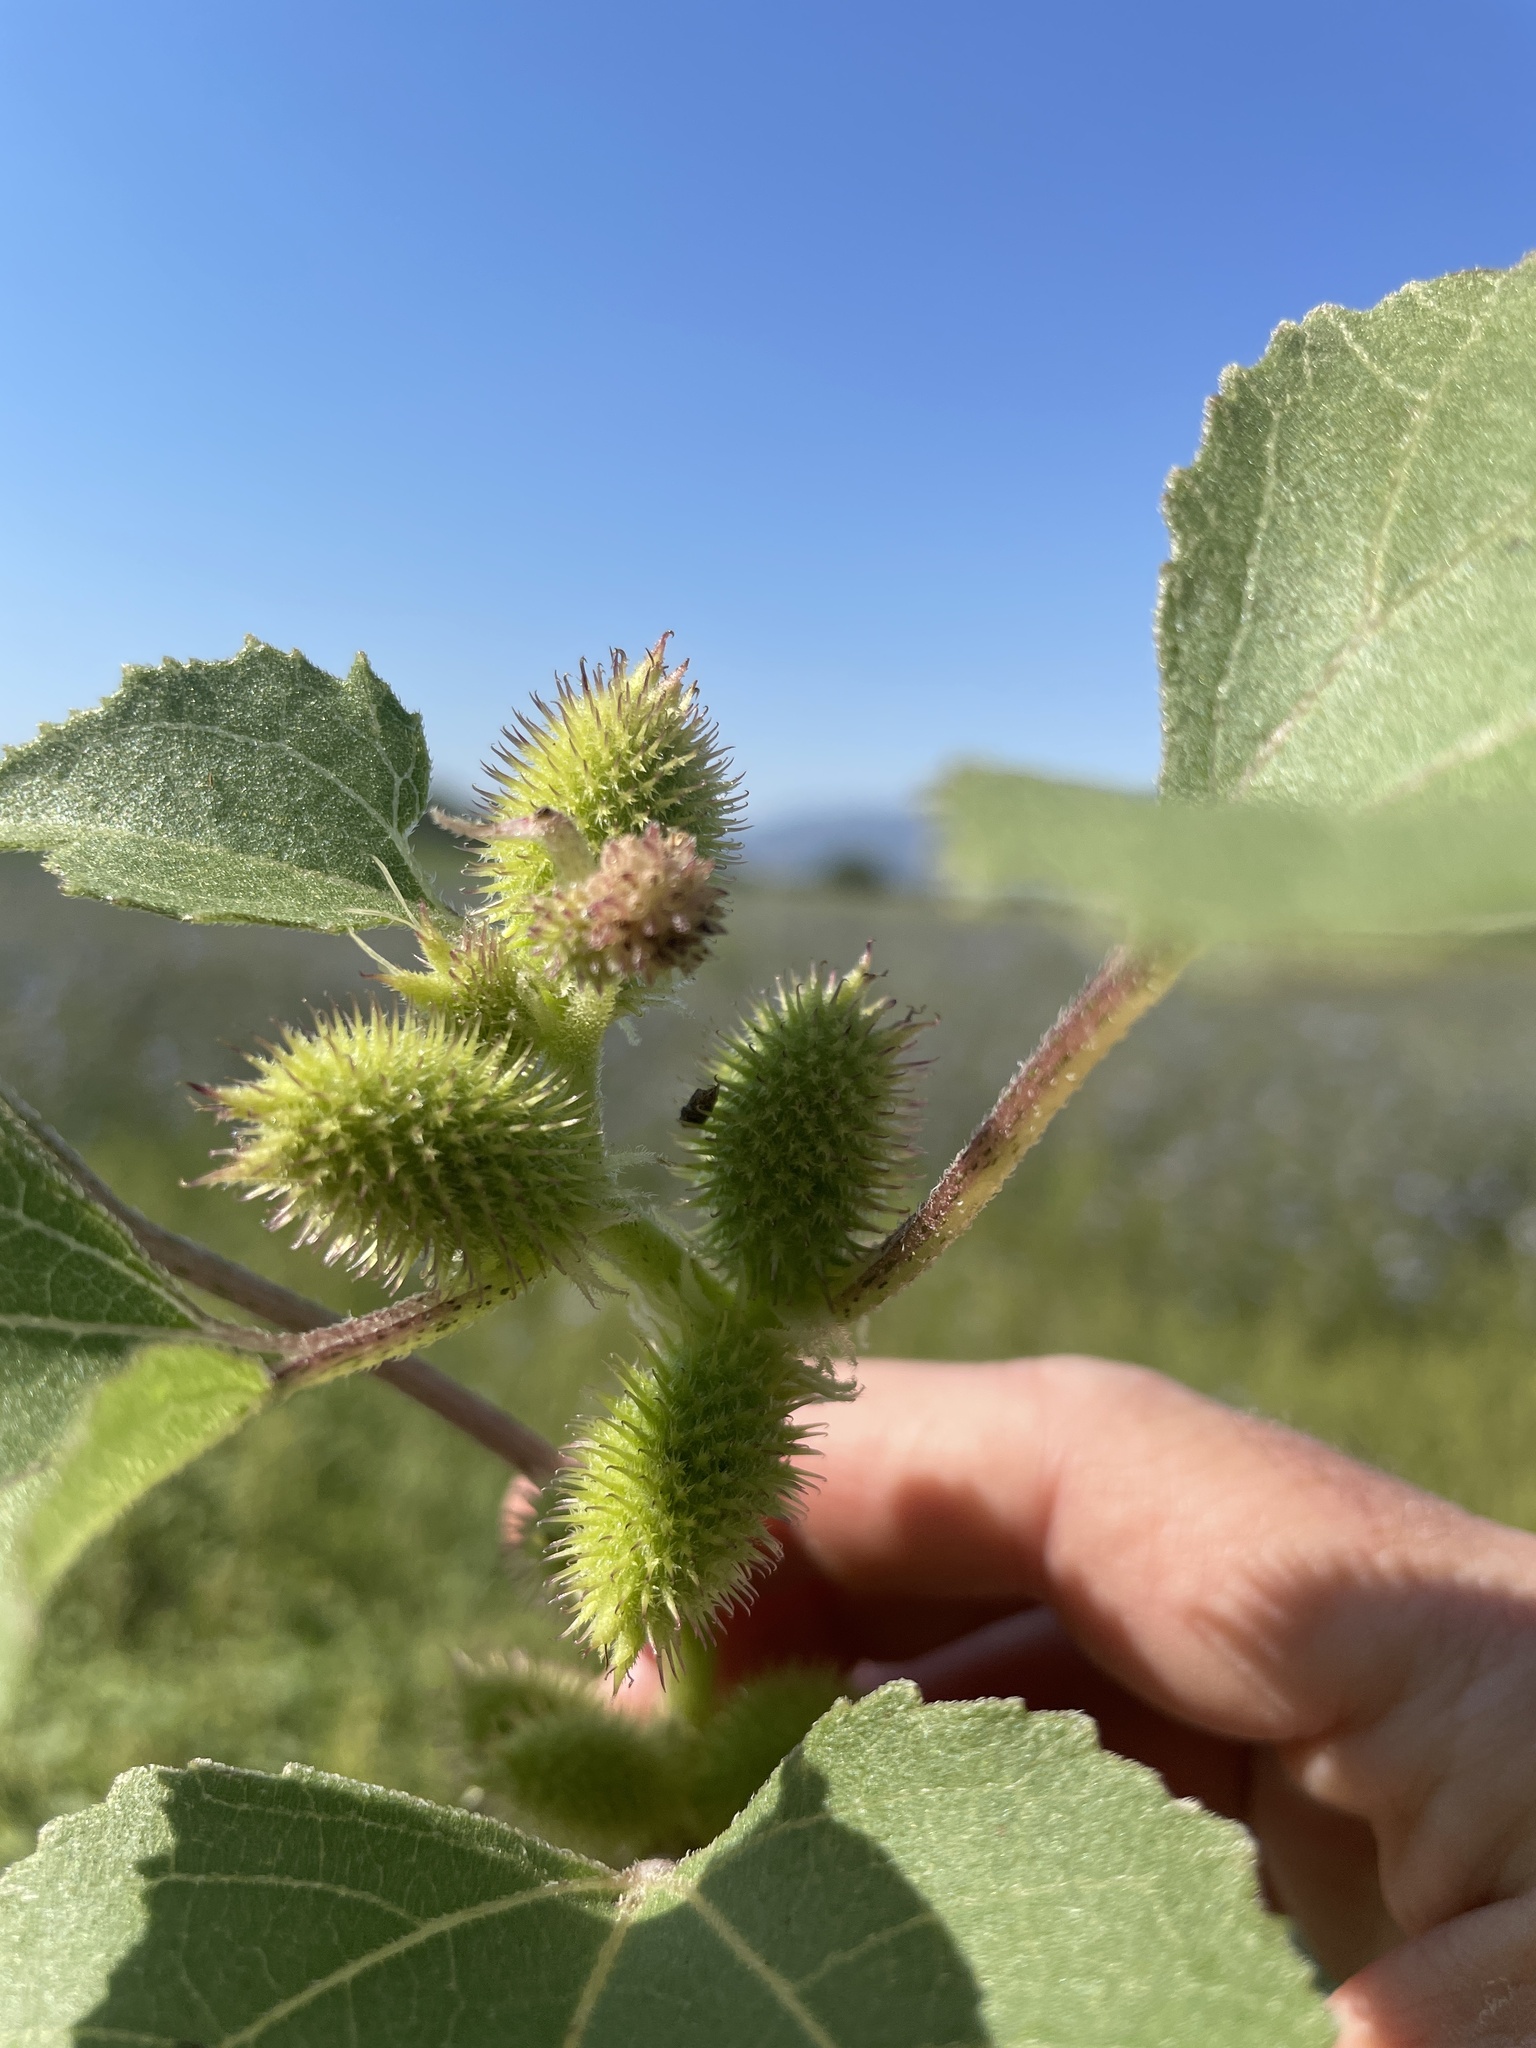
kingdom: Plantae
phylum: Tracheophyta
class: Magnoliopsida
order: Asterales
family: Asteraceae
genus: Xanthium
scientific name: Xanthium strumarium
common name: Rough cocklebur
